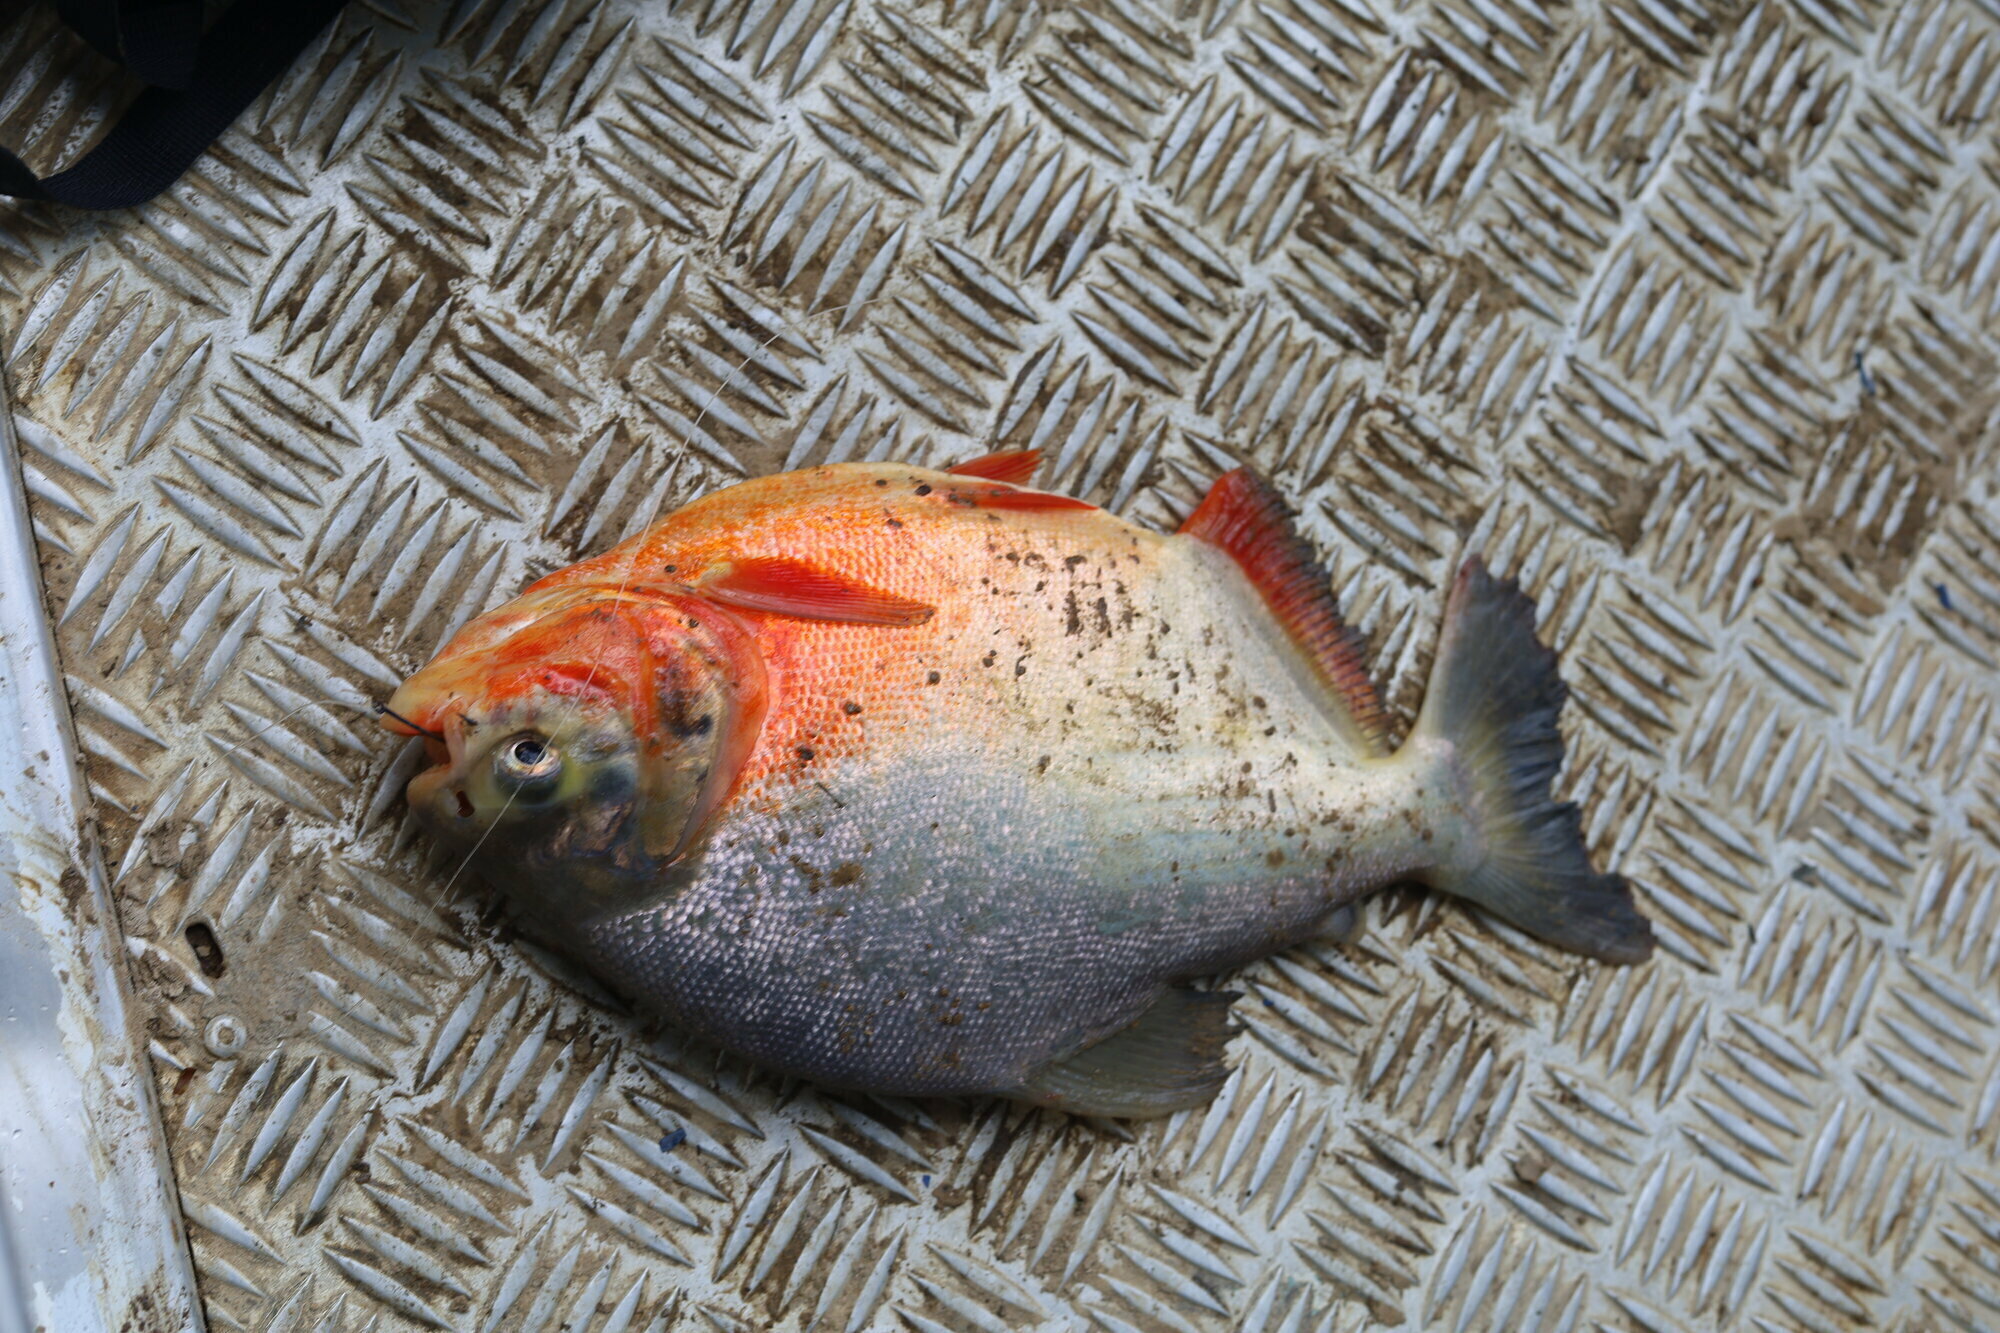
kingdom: Animalia
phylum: Chordata
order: Characiformes
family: Serrasalmidae
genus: Piaractus
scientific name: Piaractus brachypomus
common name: Cachama
